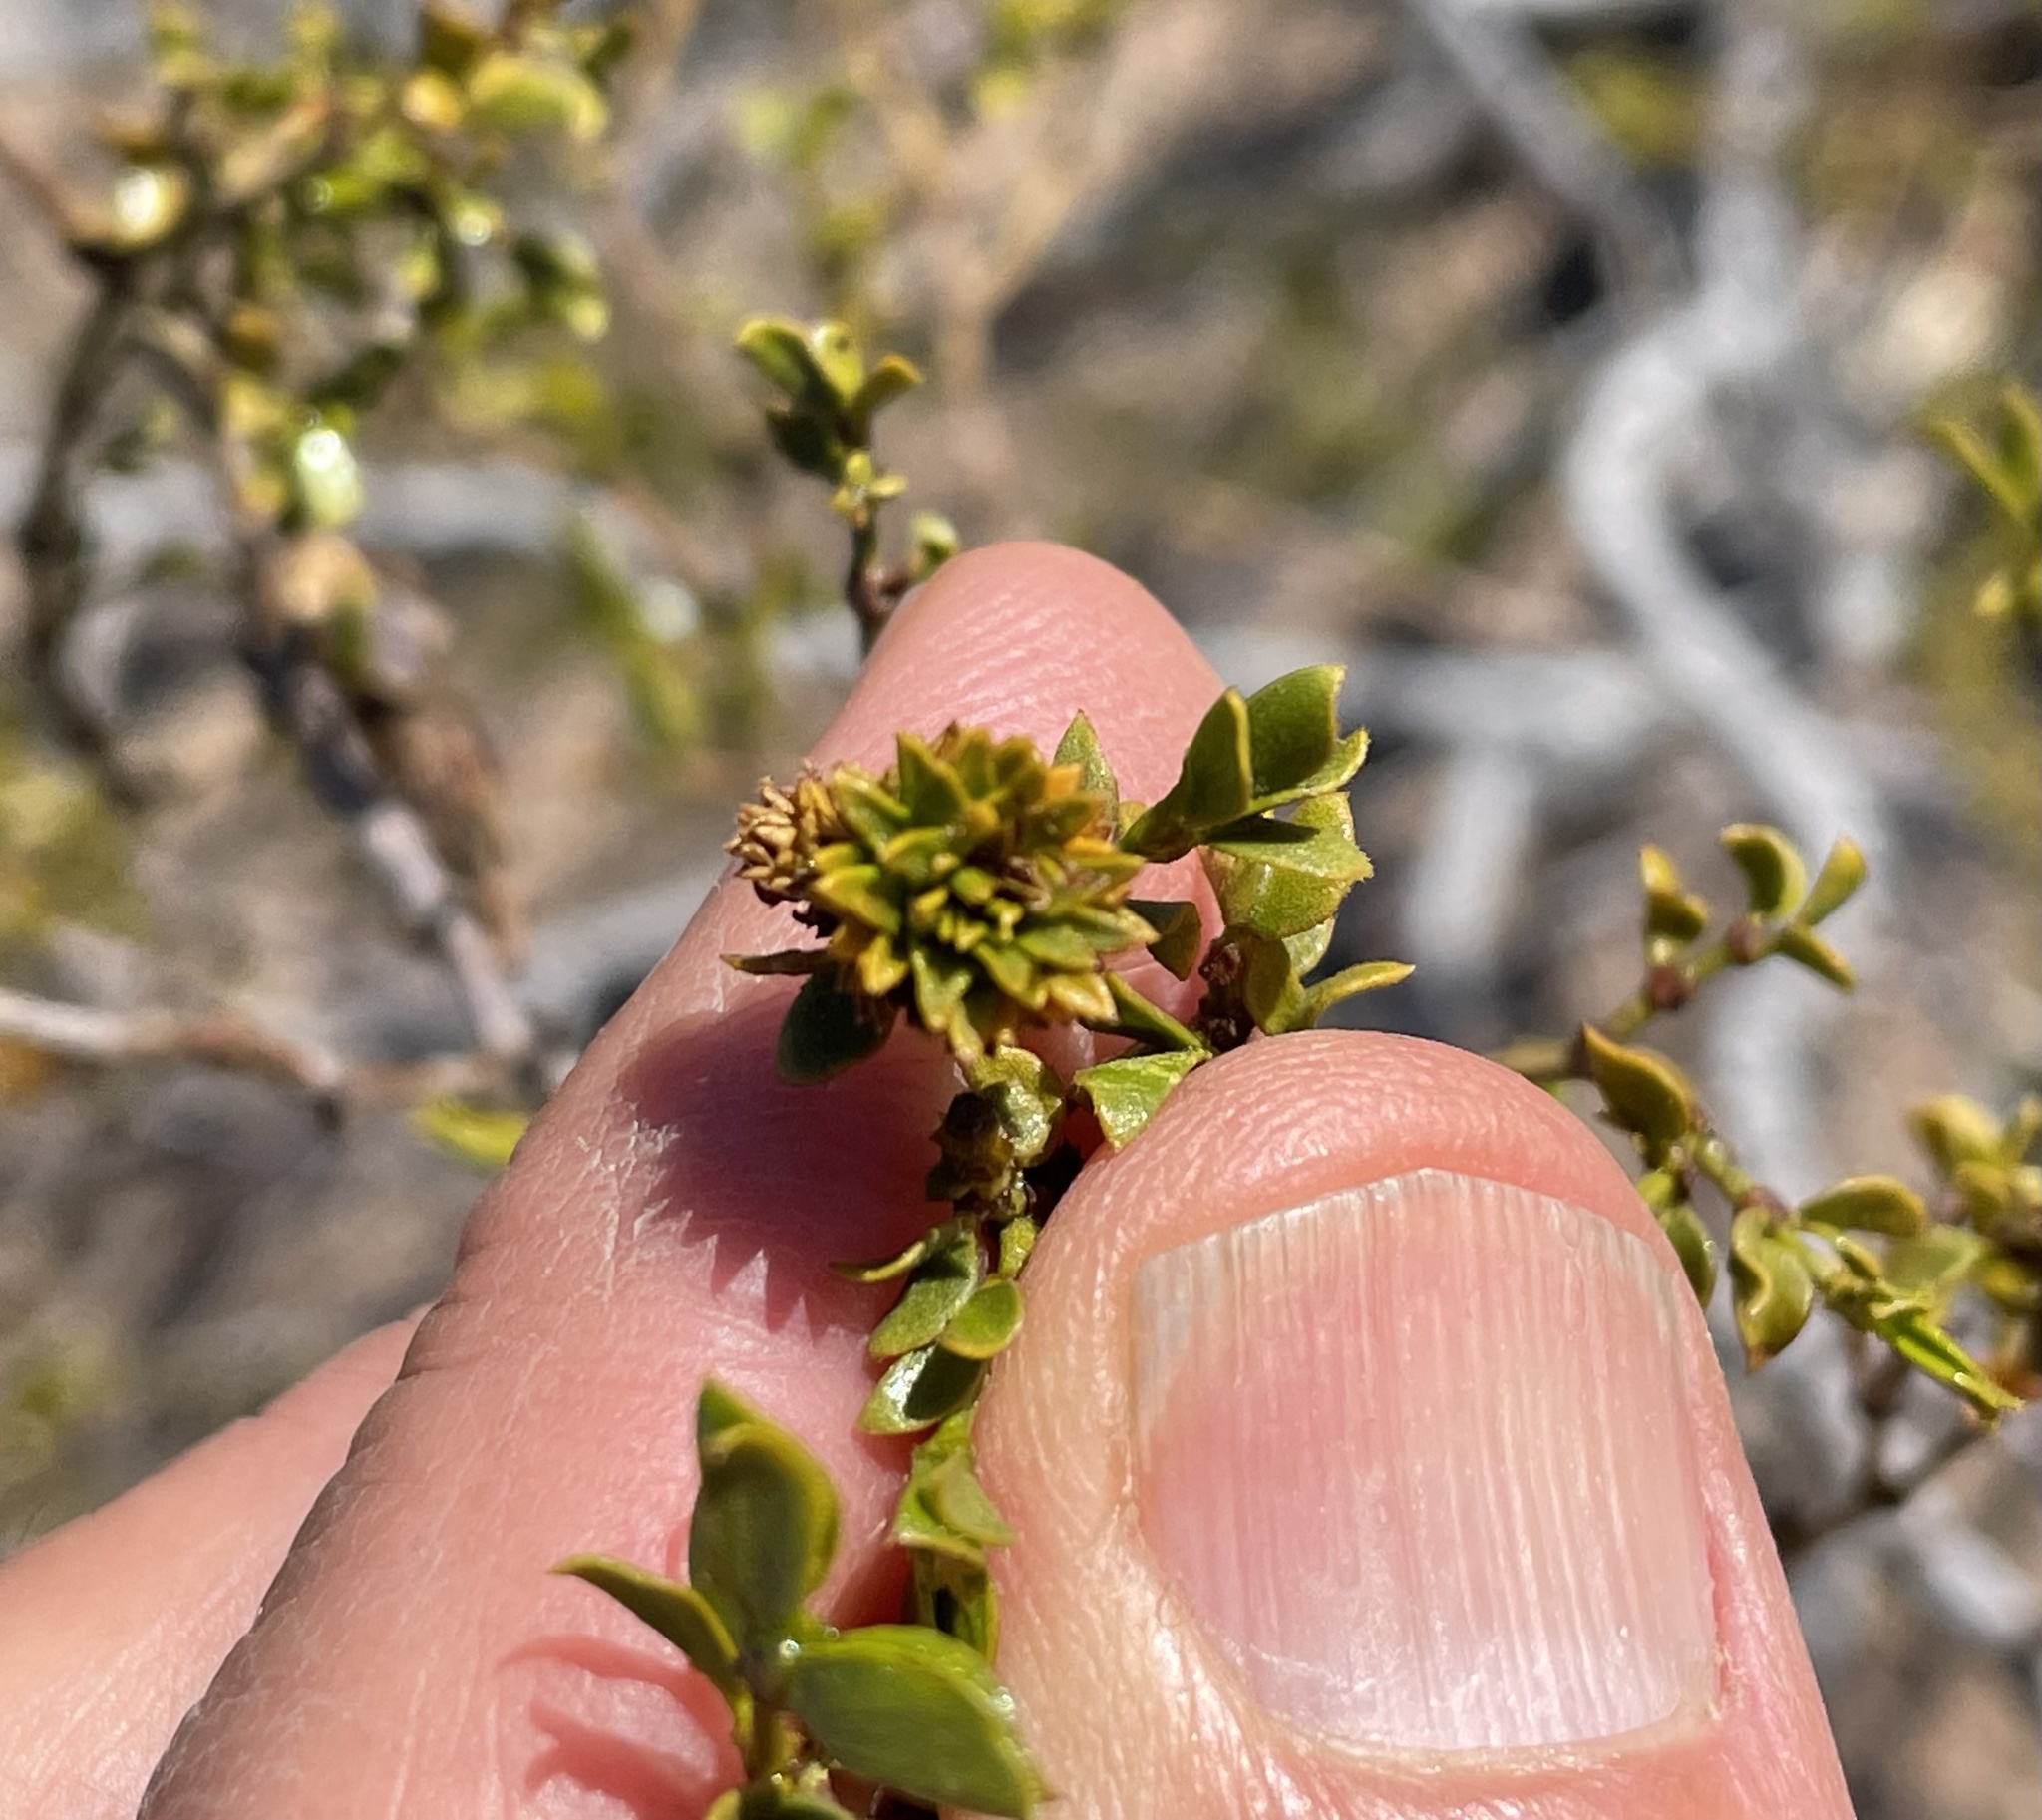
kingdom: Animalia
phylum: Arthropoda
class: Insecta
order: Diptera
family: Cecidomyiidae
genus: Asphondylia
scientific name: Asphondylia rosetta
